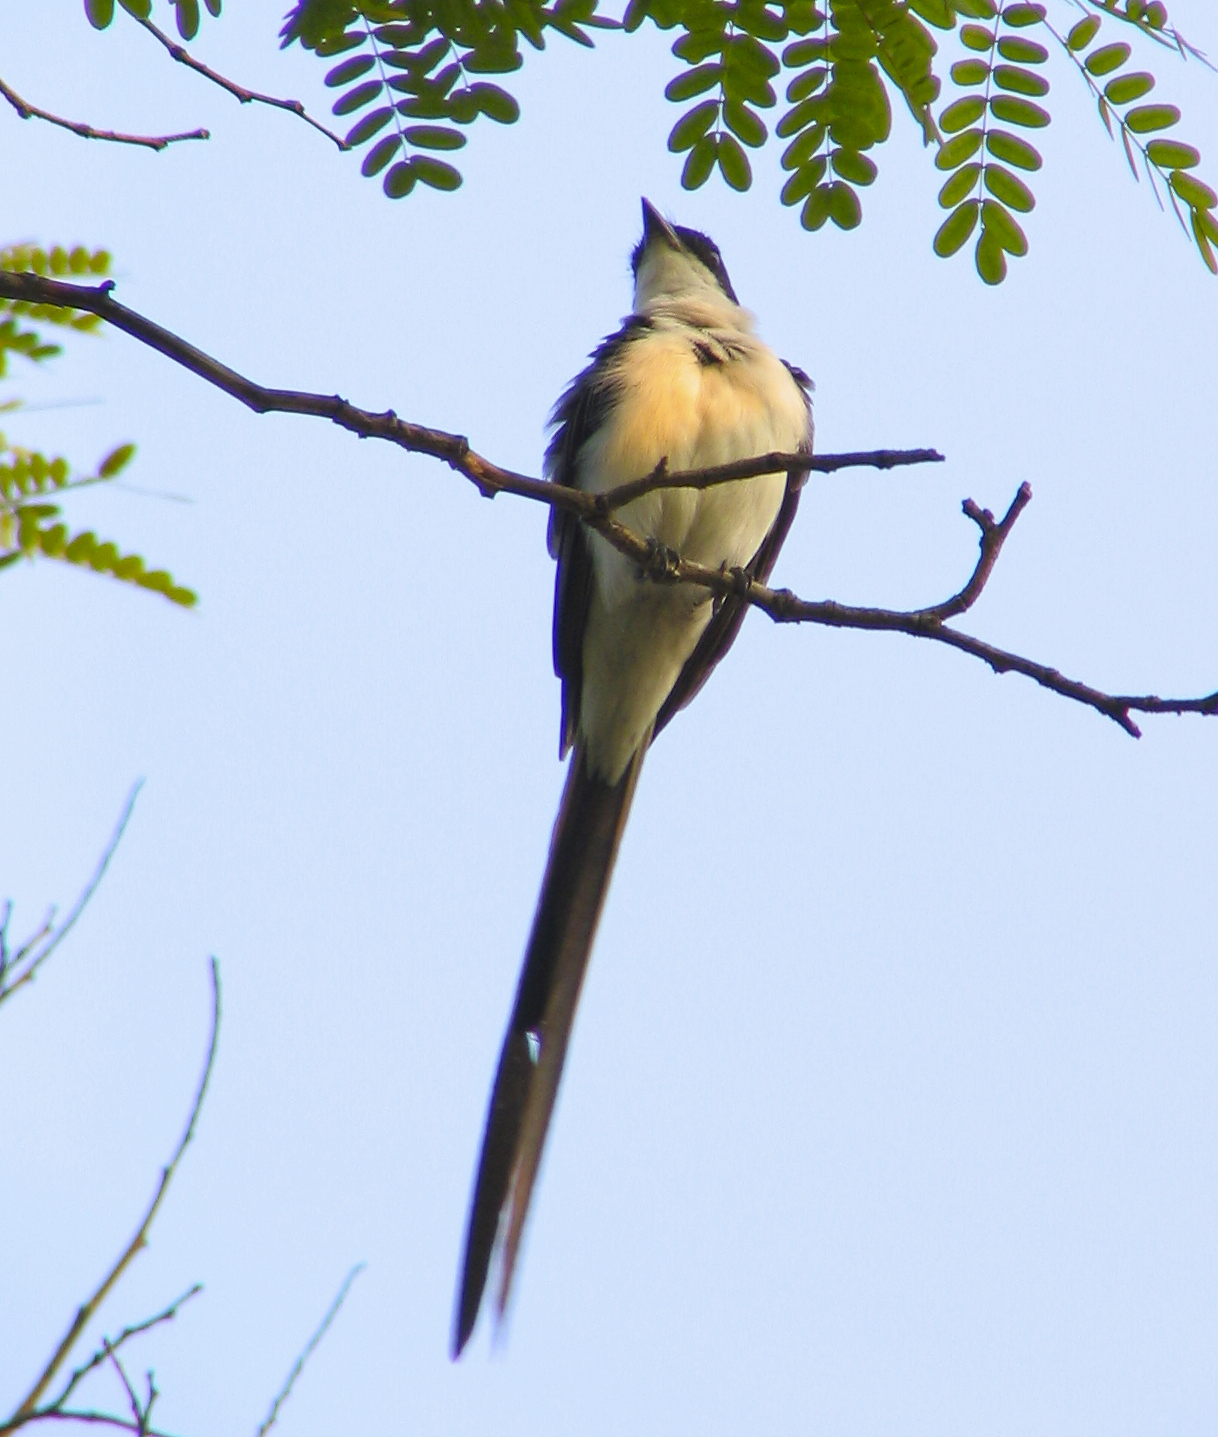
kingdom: Animalia
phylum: Chordata
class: Aves
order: Passeriformes
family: Tyrannidae
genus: Tyrannus
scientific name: Tyrannus savana
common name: Fork-tailed flycatcher
